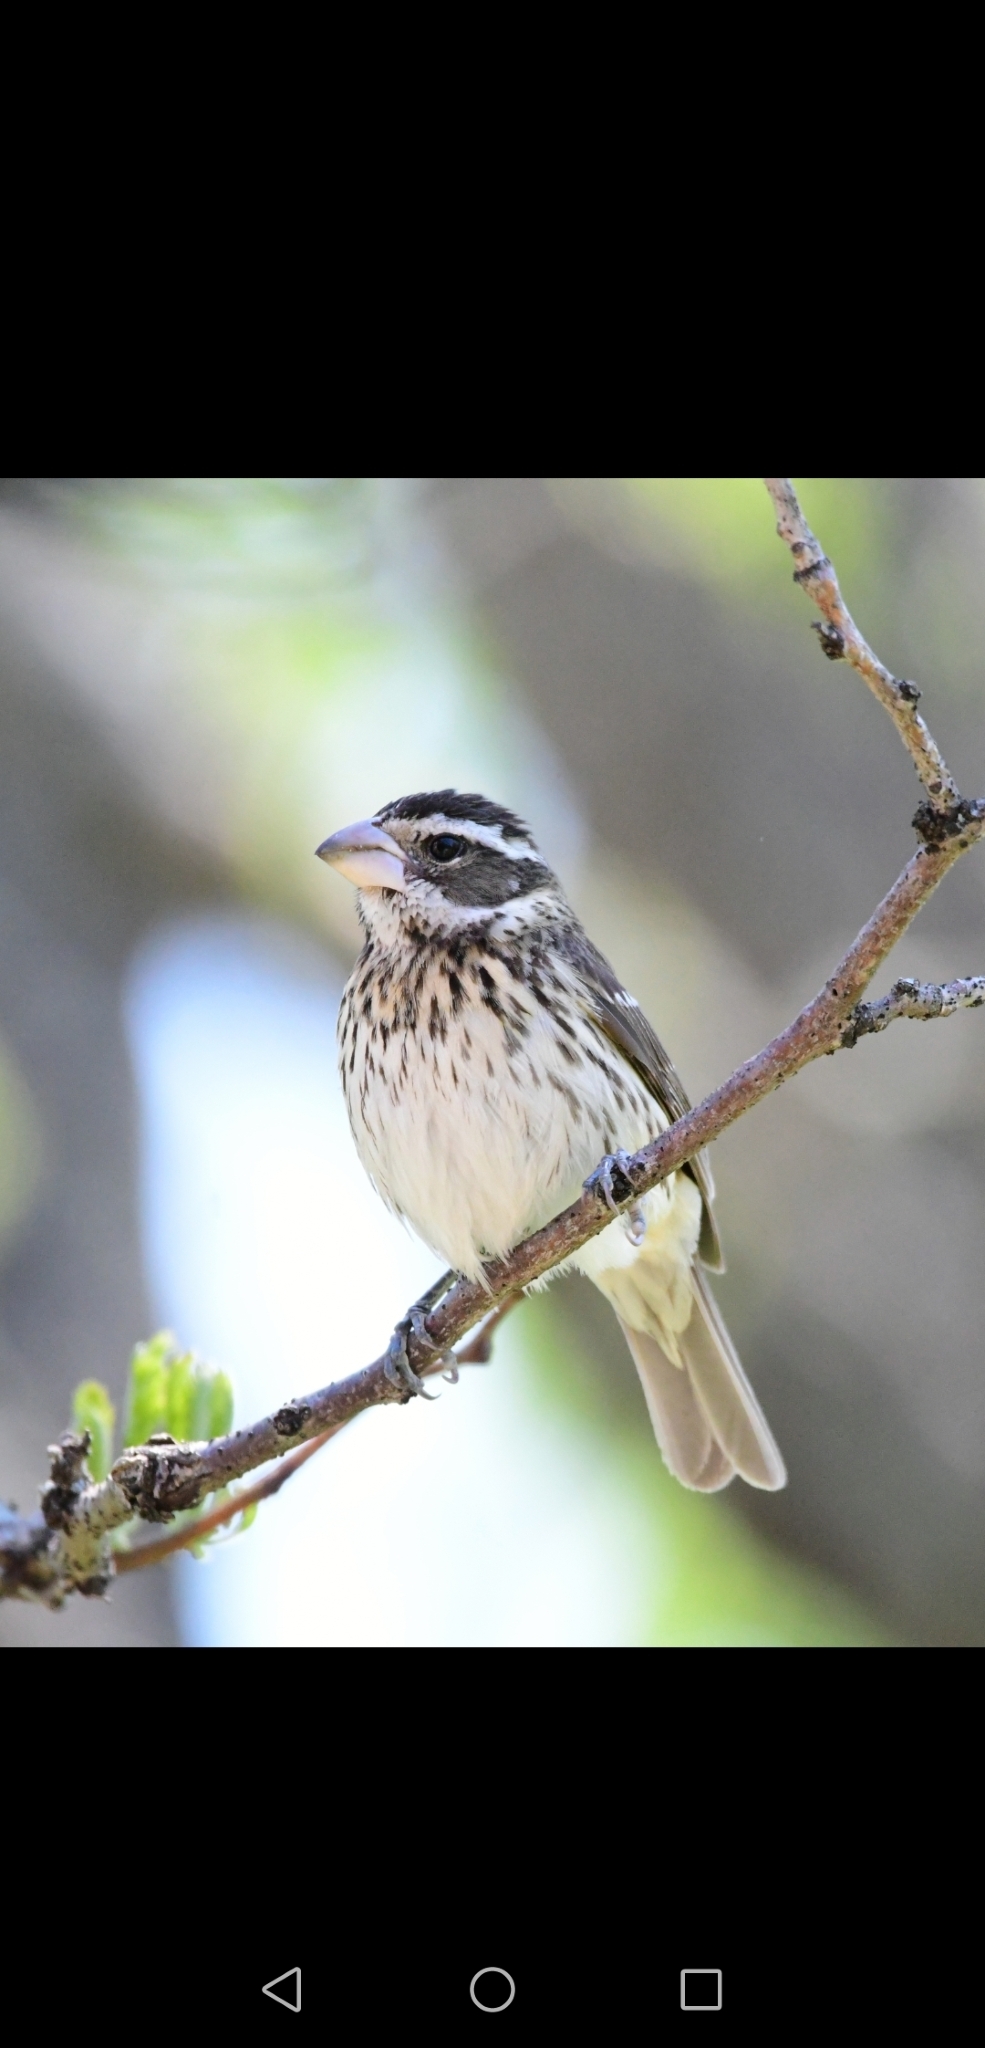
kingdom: Animalia
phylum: Chordata
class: Aves
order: Passeriformes
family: Cardinalidae
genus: Pheucticus
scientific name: Pheucticus ludovicianus
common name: Rose-breasted grosbeak
